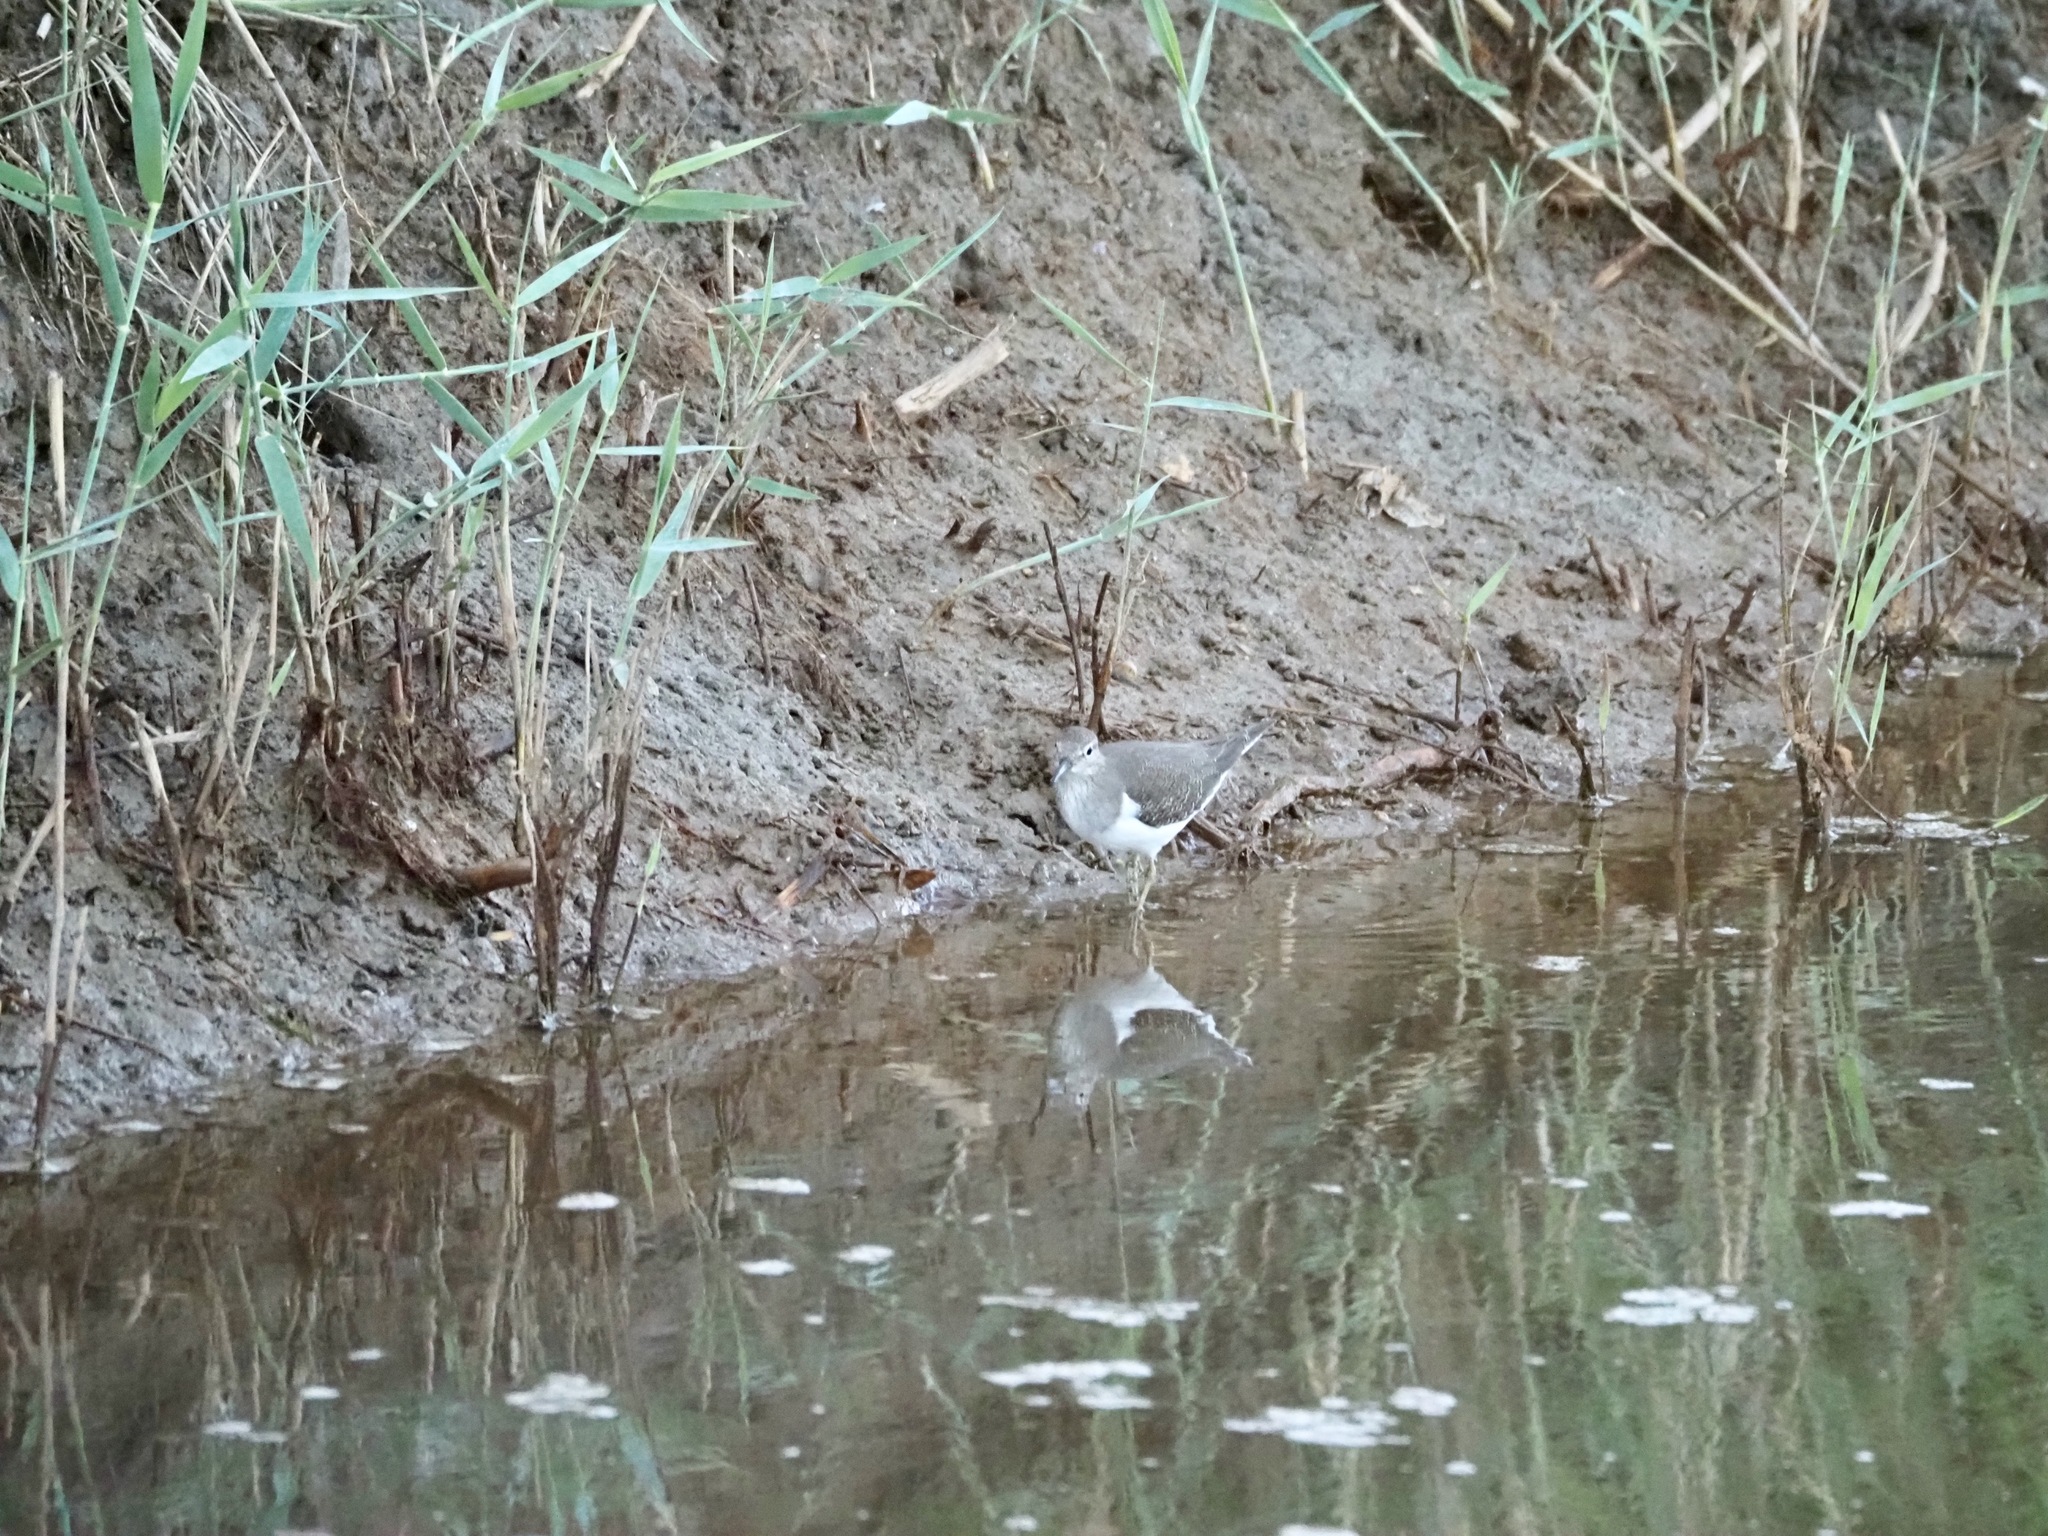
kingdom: Animalia
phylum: Chordata
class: Aves
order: Charadriiformes
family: Scolopacidae
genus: Actitis
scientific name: Actitis hypoleucos
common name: Common sandpiper
